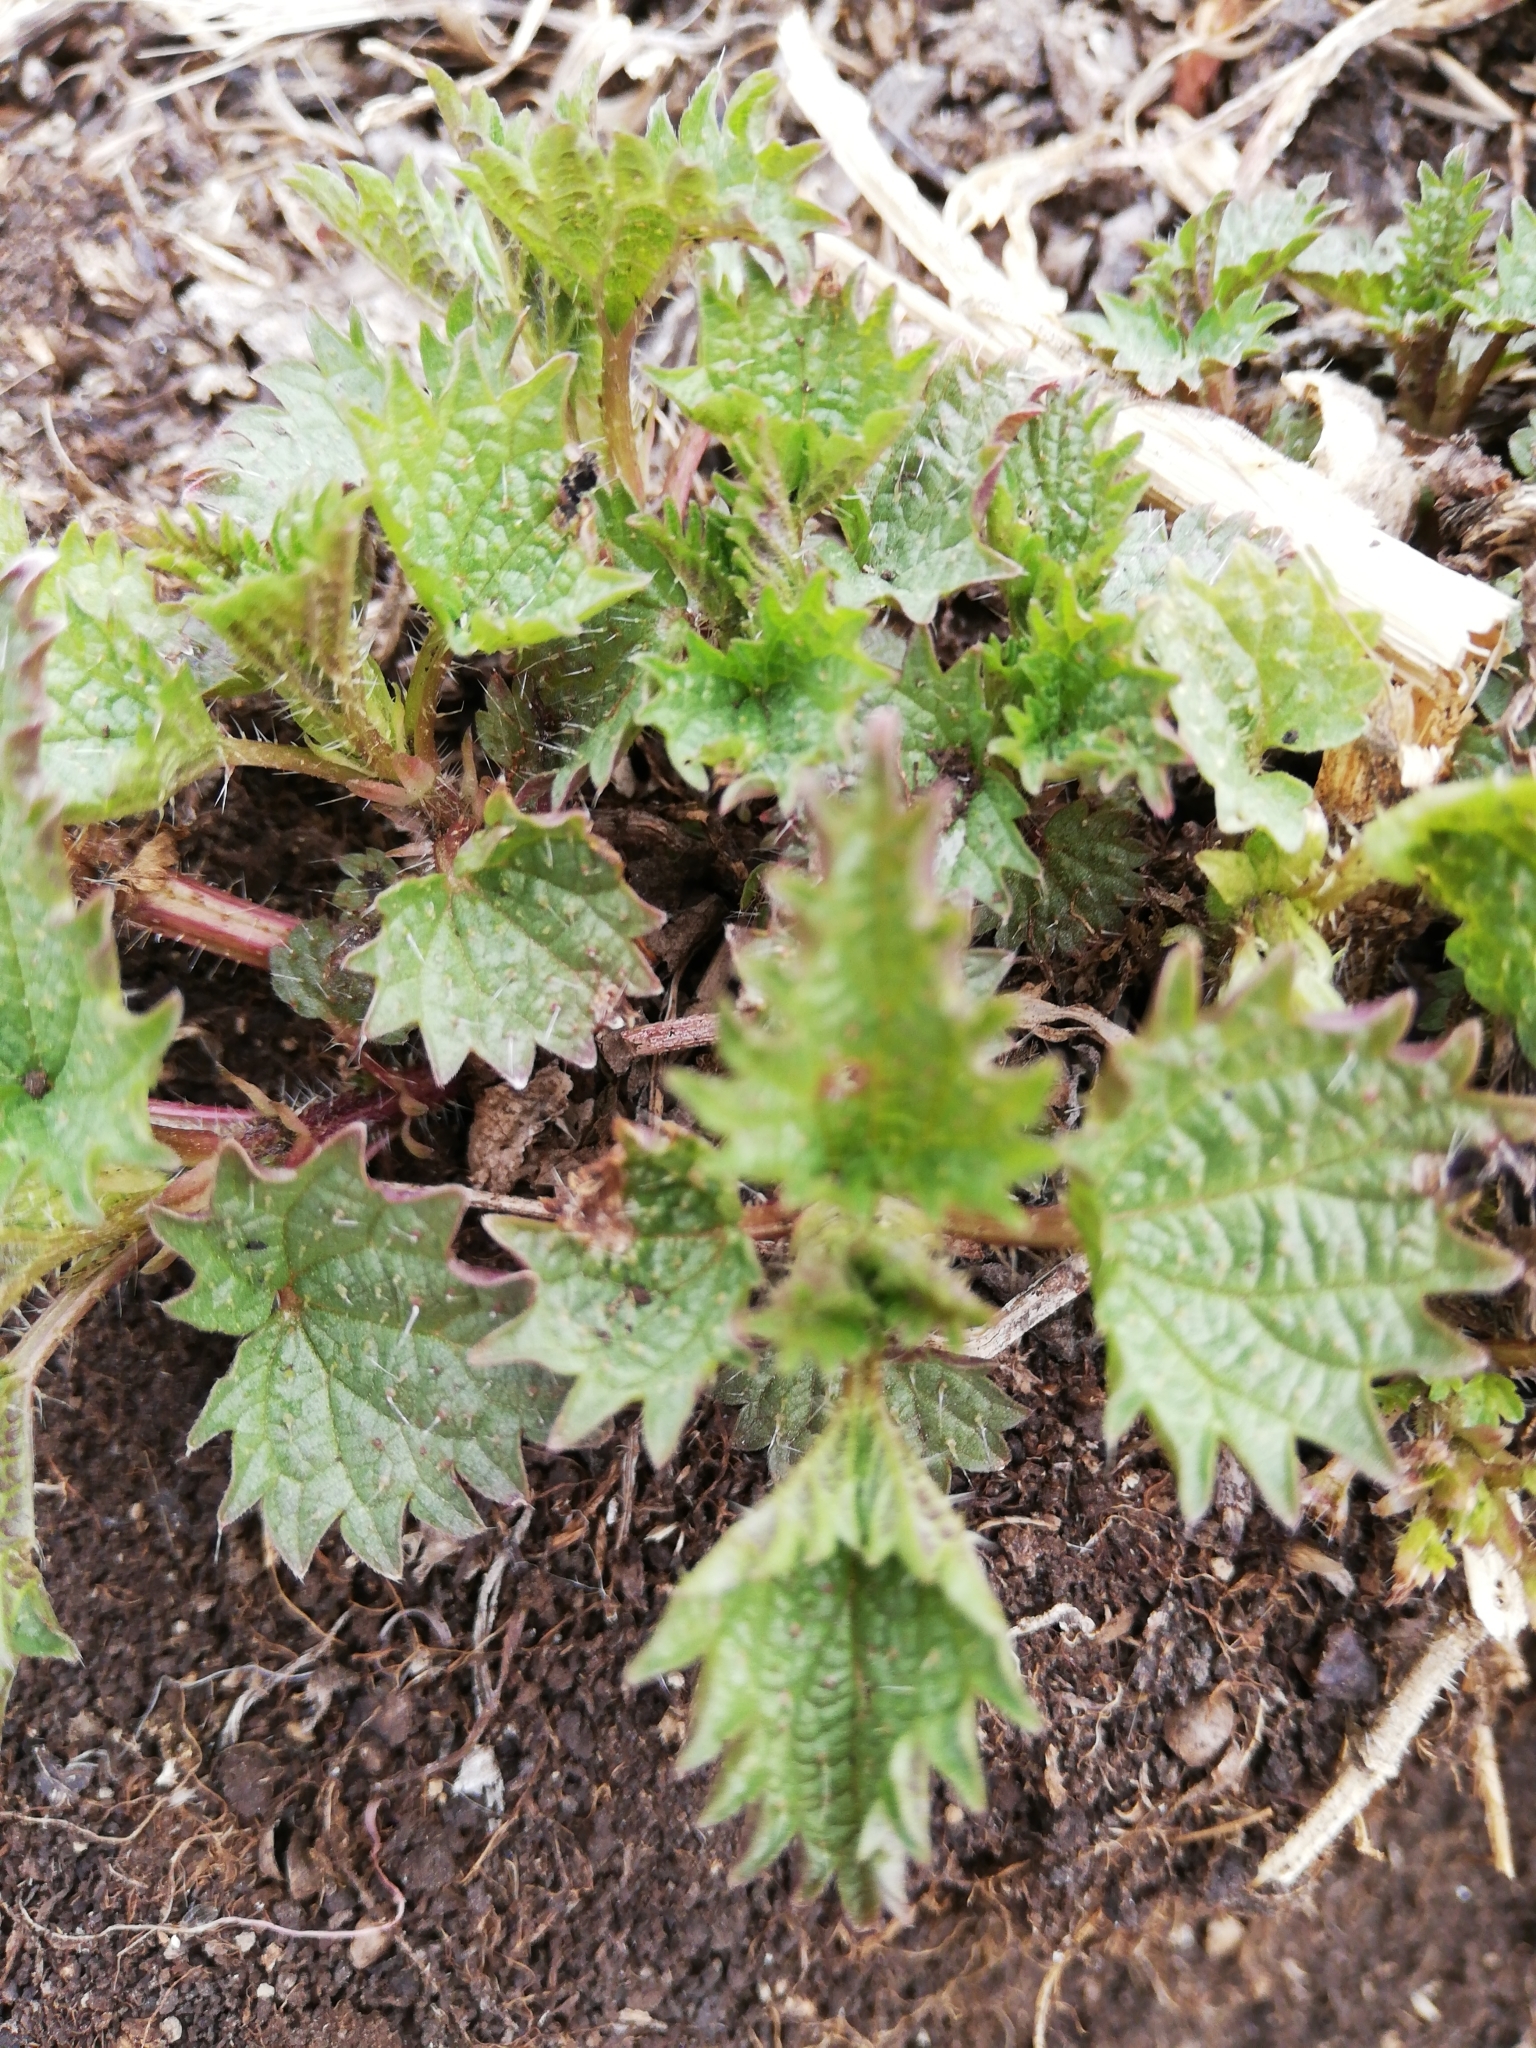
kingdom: Plantae
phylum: Tracheophyta
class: Magnoliopsida
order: Rosales
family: Urticaceae
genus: Urtica
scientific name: Urtica dioica
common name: Common nettle
